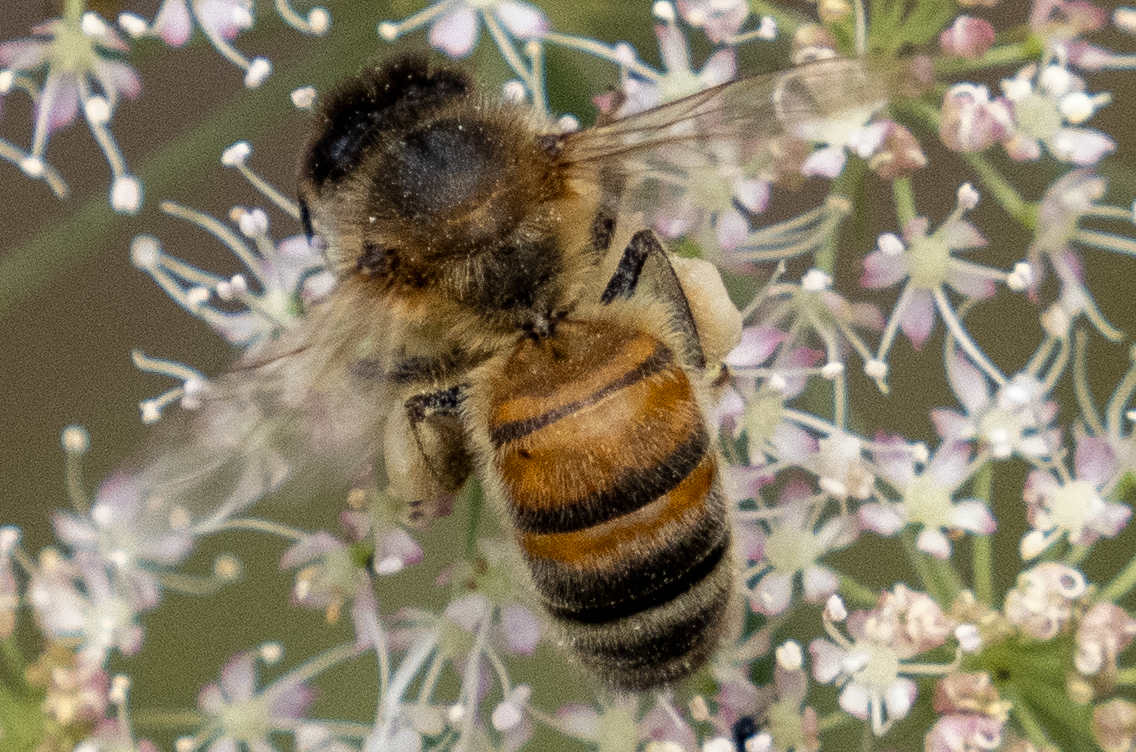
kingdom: Animalia
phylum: Arthropoda
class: Insecta
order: Hymenoptera
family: Apidae
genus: Apis
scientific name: Apis mellifera
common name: Honey bee
